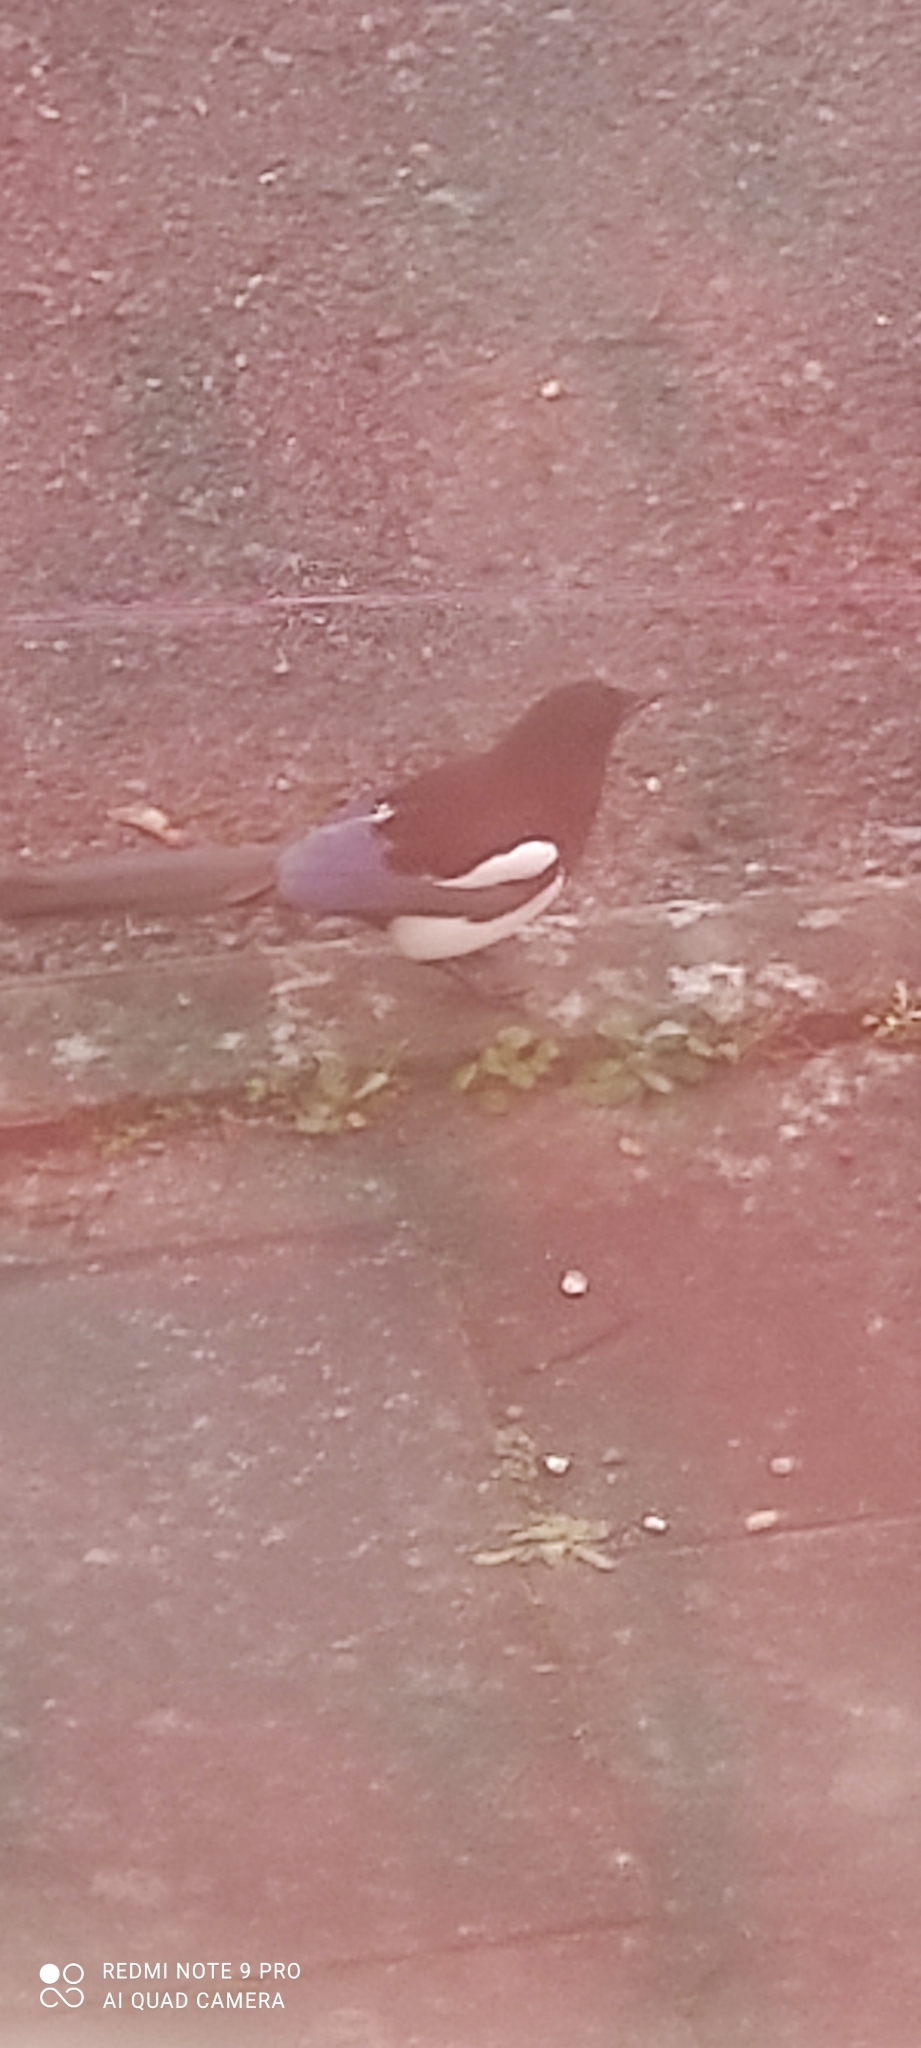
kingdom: Animalia
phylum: Chordata
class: Aves
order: Passeriformes
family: Corvidae
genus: Pica
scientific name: Pica pica
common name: Eurasian magpie
